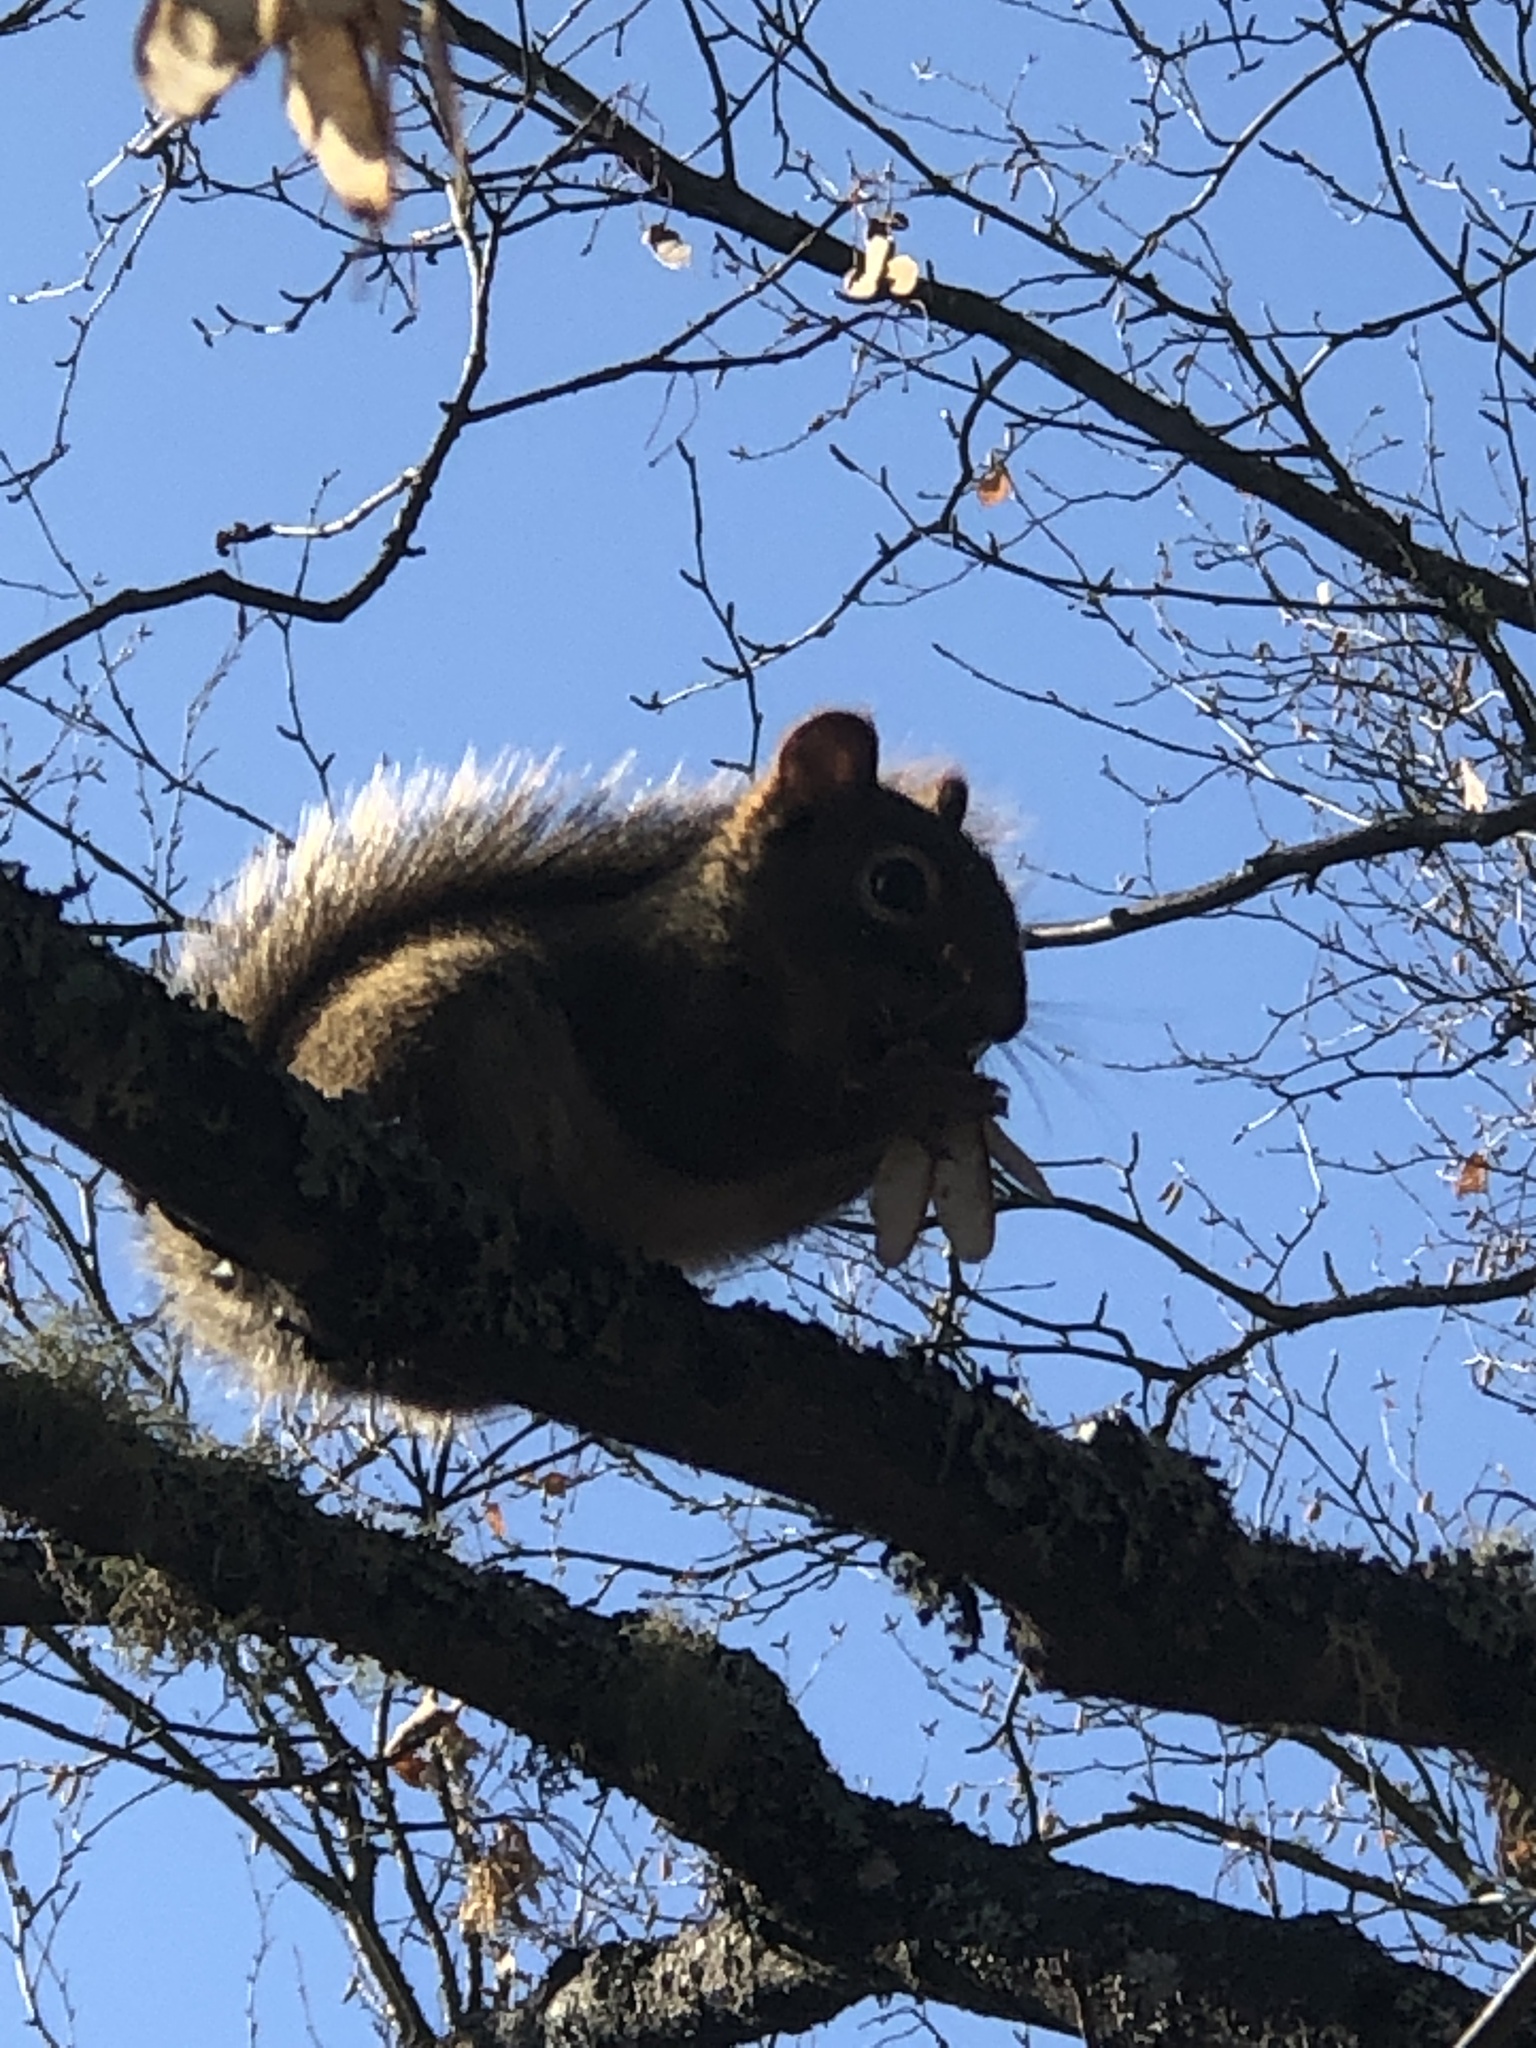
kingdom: Animalia
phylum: Chordata
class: Mammalia
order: Rodentia
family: Sciuridae
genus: Tamiasciurus
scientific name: Tamiasciurus hudsonicus
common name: Red squirrel
